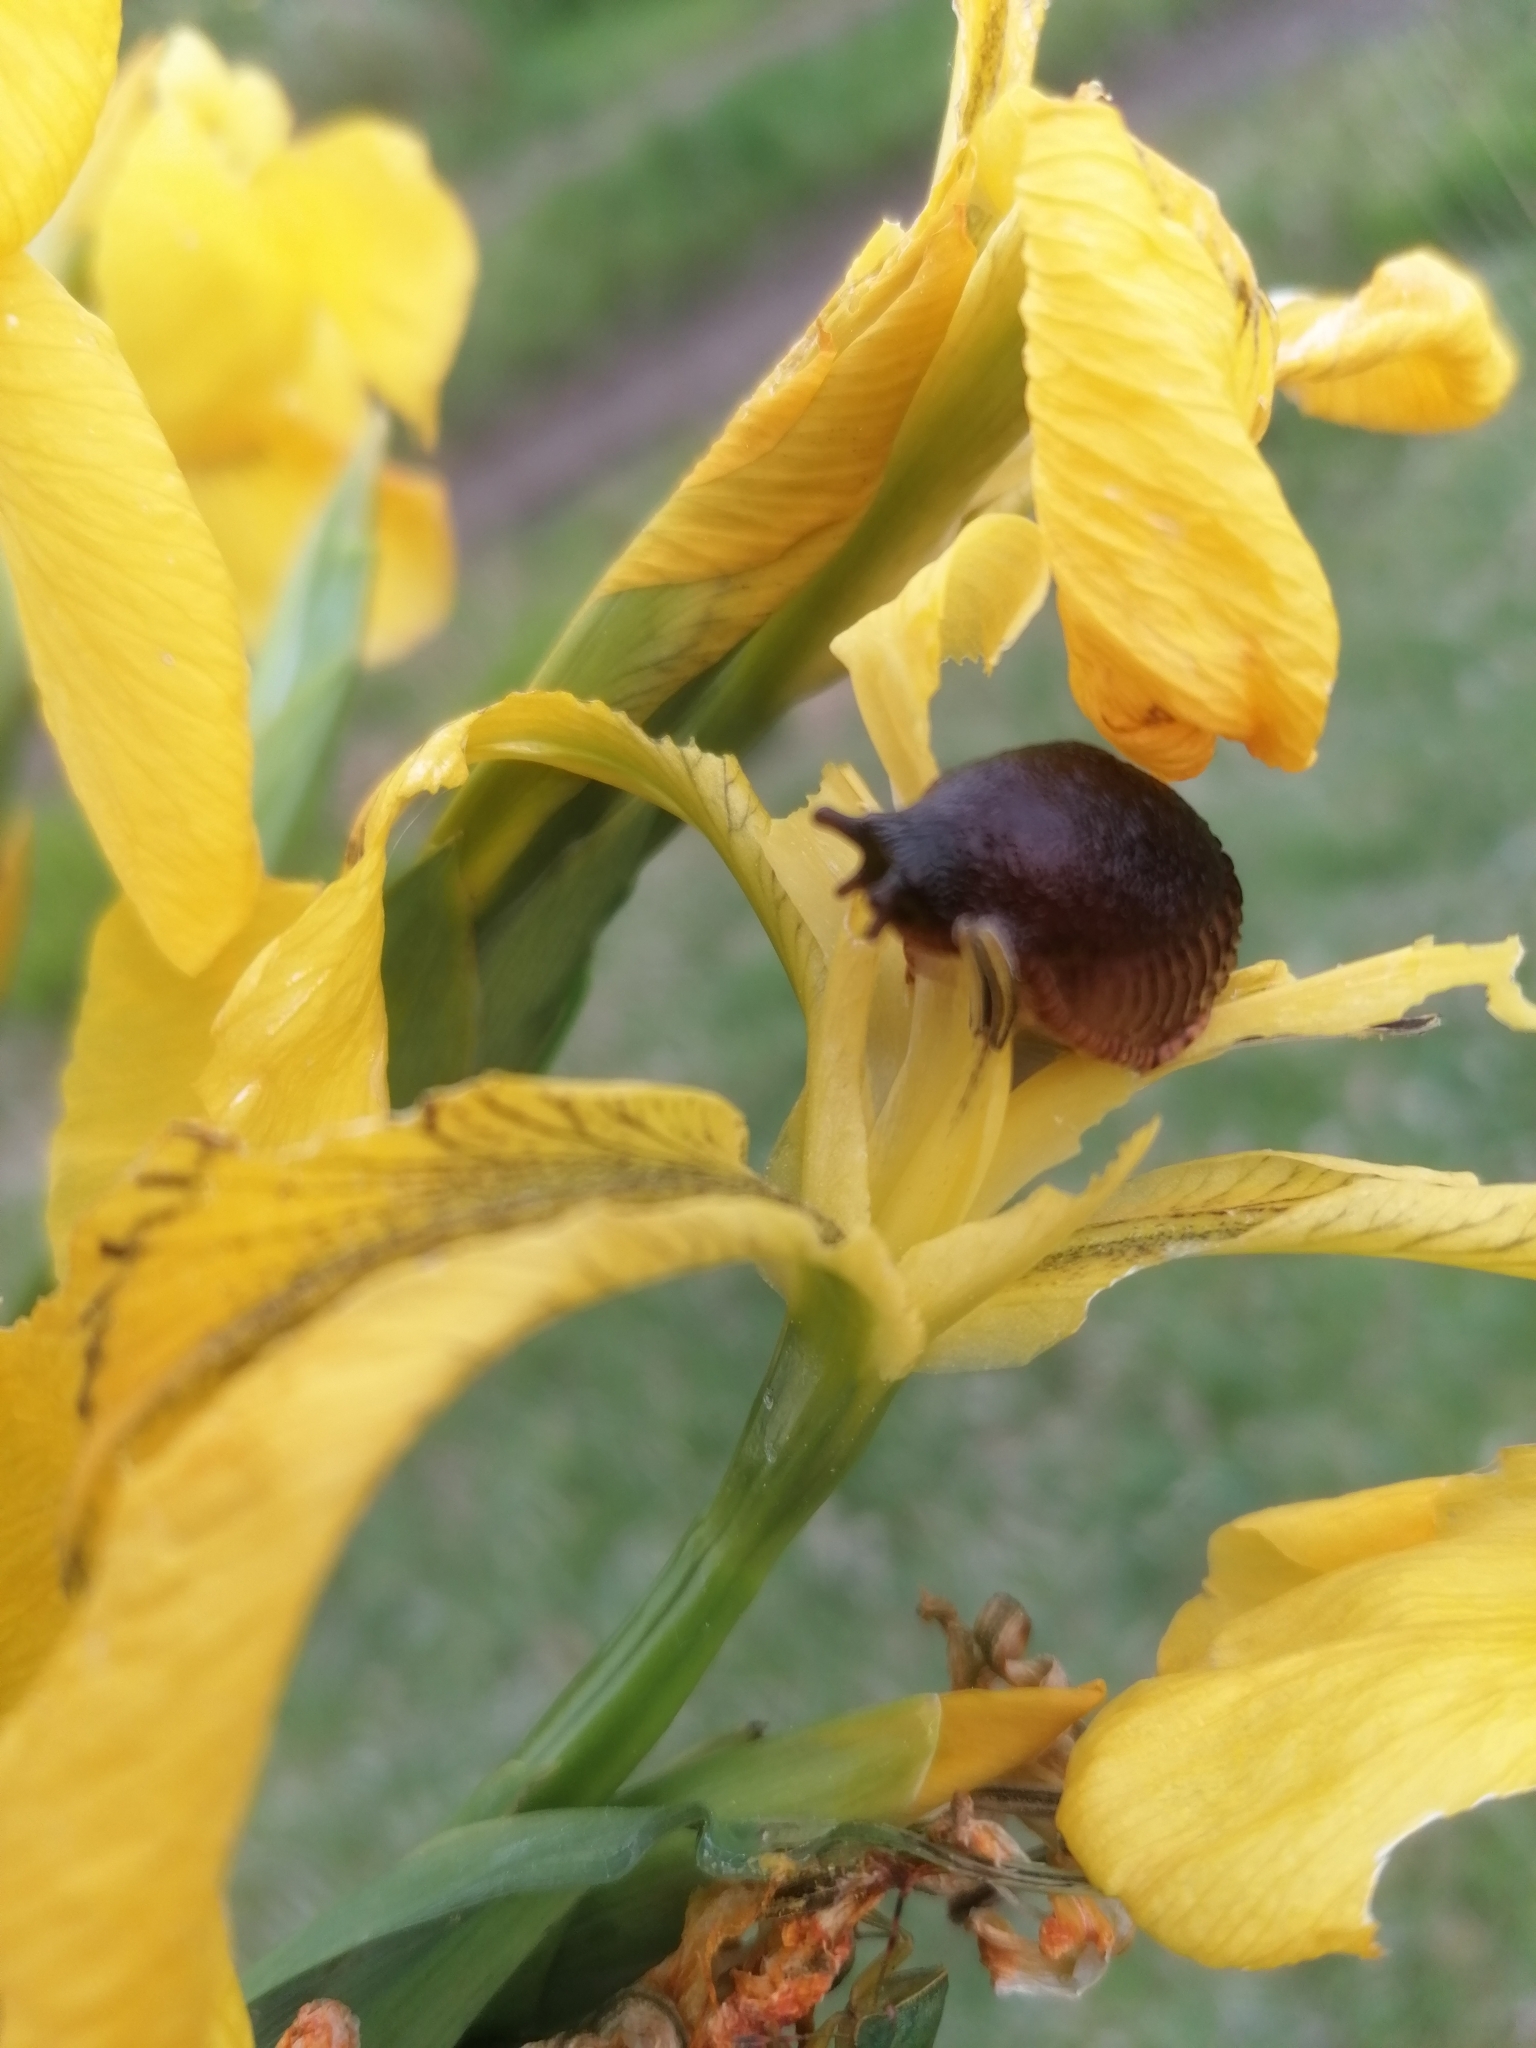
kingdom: Animalia
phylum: Mollusca
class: Gastropoda
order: Stylommatophora
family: Arionidae
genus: Arion
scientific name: Arion rufus
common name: Chocolate arion
